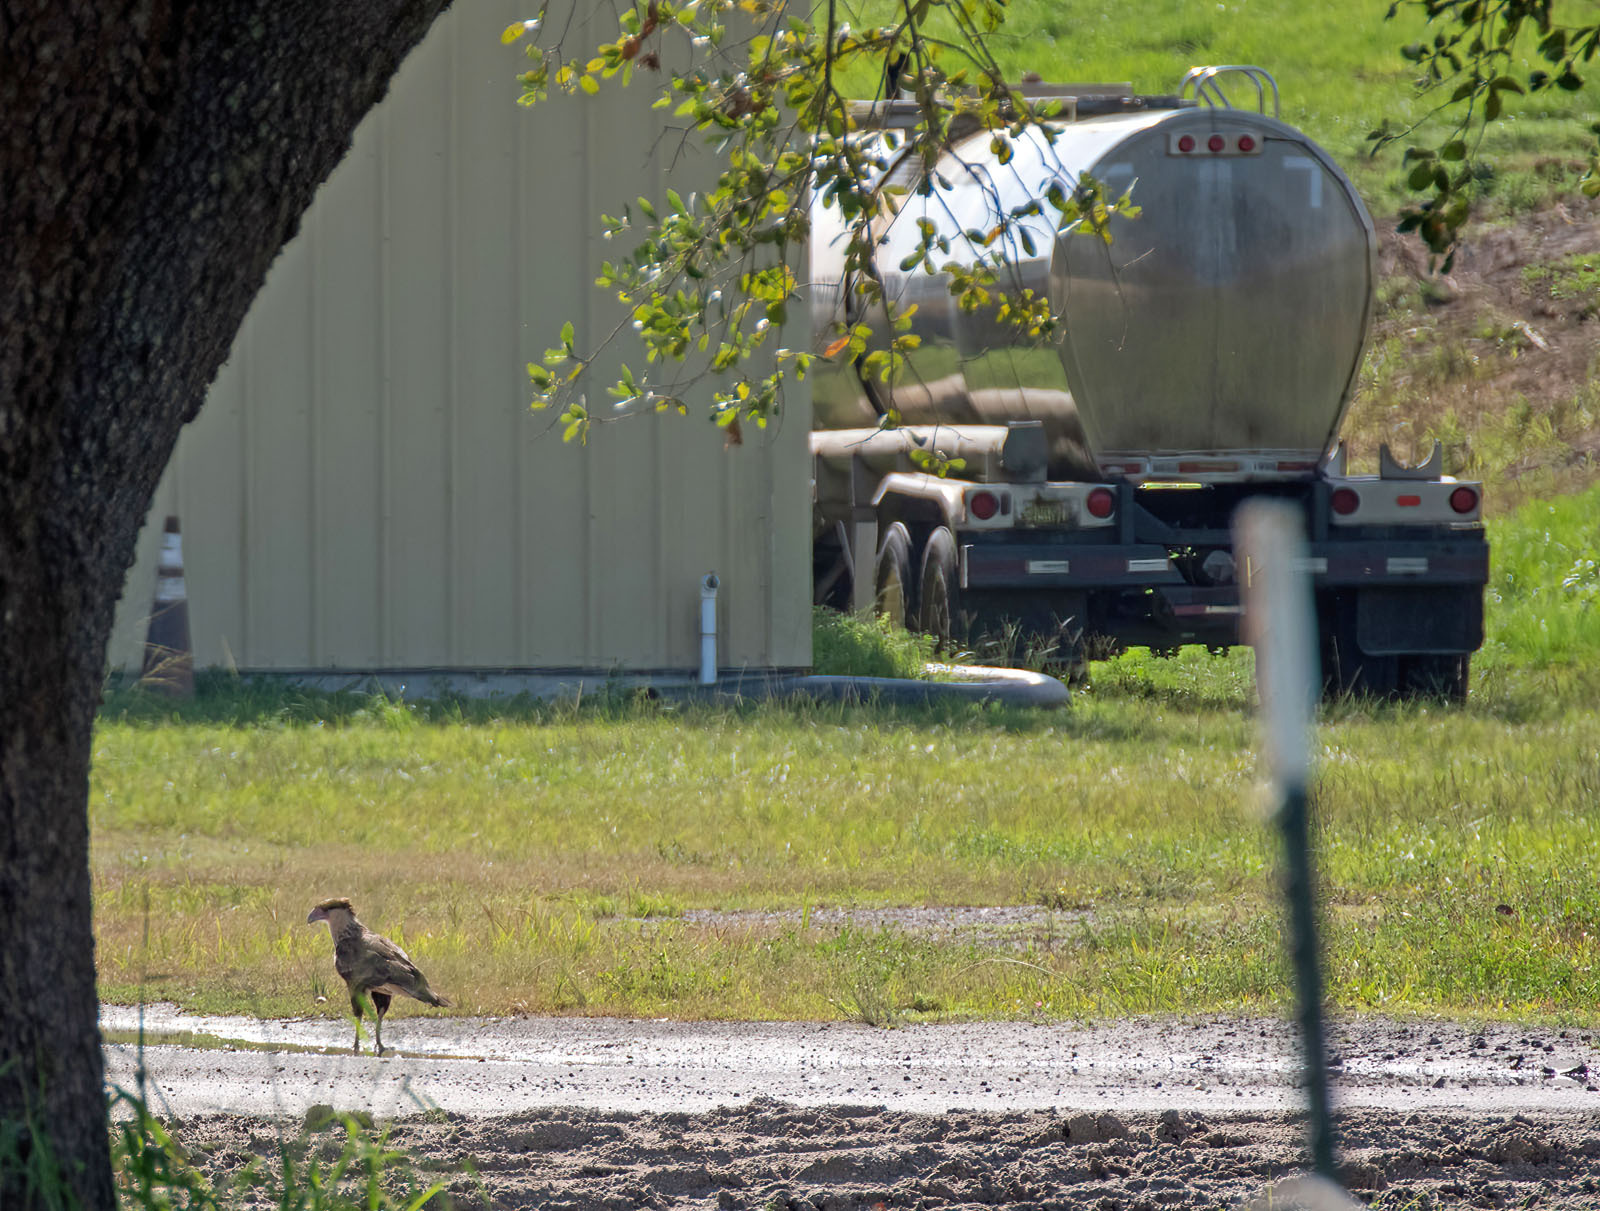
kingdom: Animalia
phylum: Chordata
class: Aves
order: Falconiformes
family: Falconidae
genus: Caracara
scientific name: Caracara plancus
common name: Southern caracara
